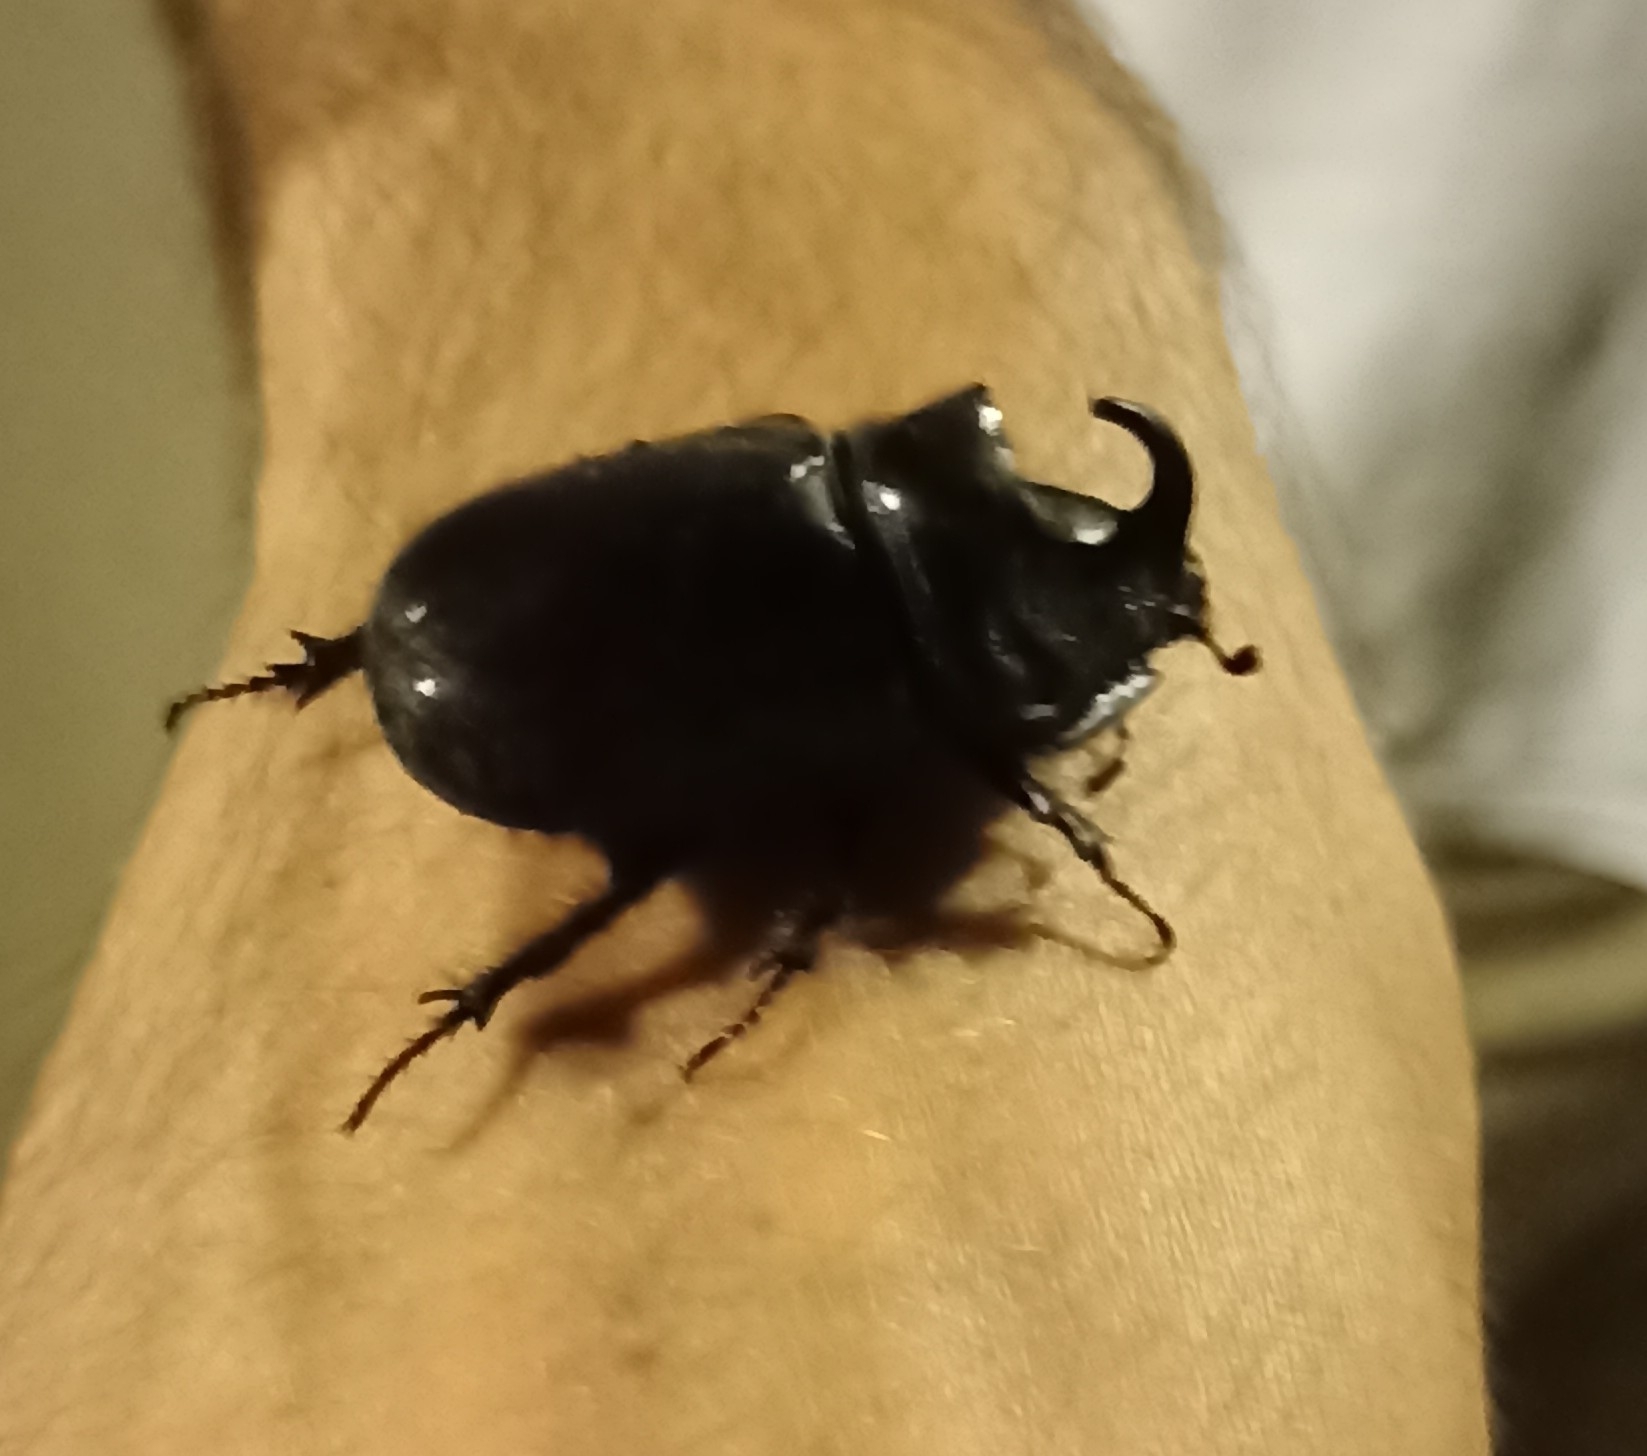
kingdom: Animalia
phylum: Arthropoda
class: Insecta
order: Coleoptera
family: Scarabaeidae
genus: Oryctes
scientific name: Oryctes nasicornis
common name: European rhinoceros beetle
